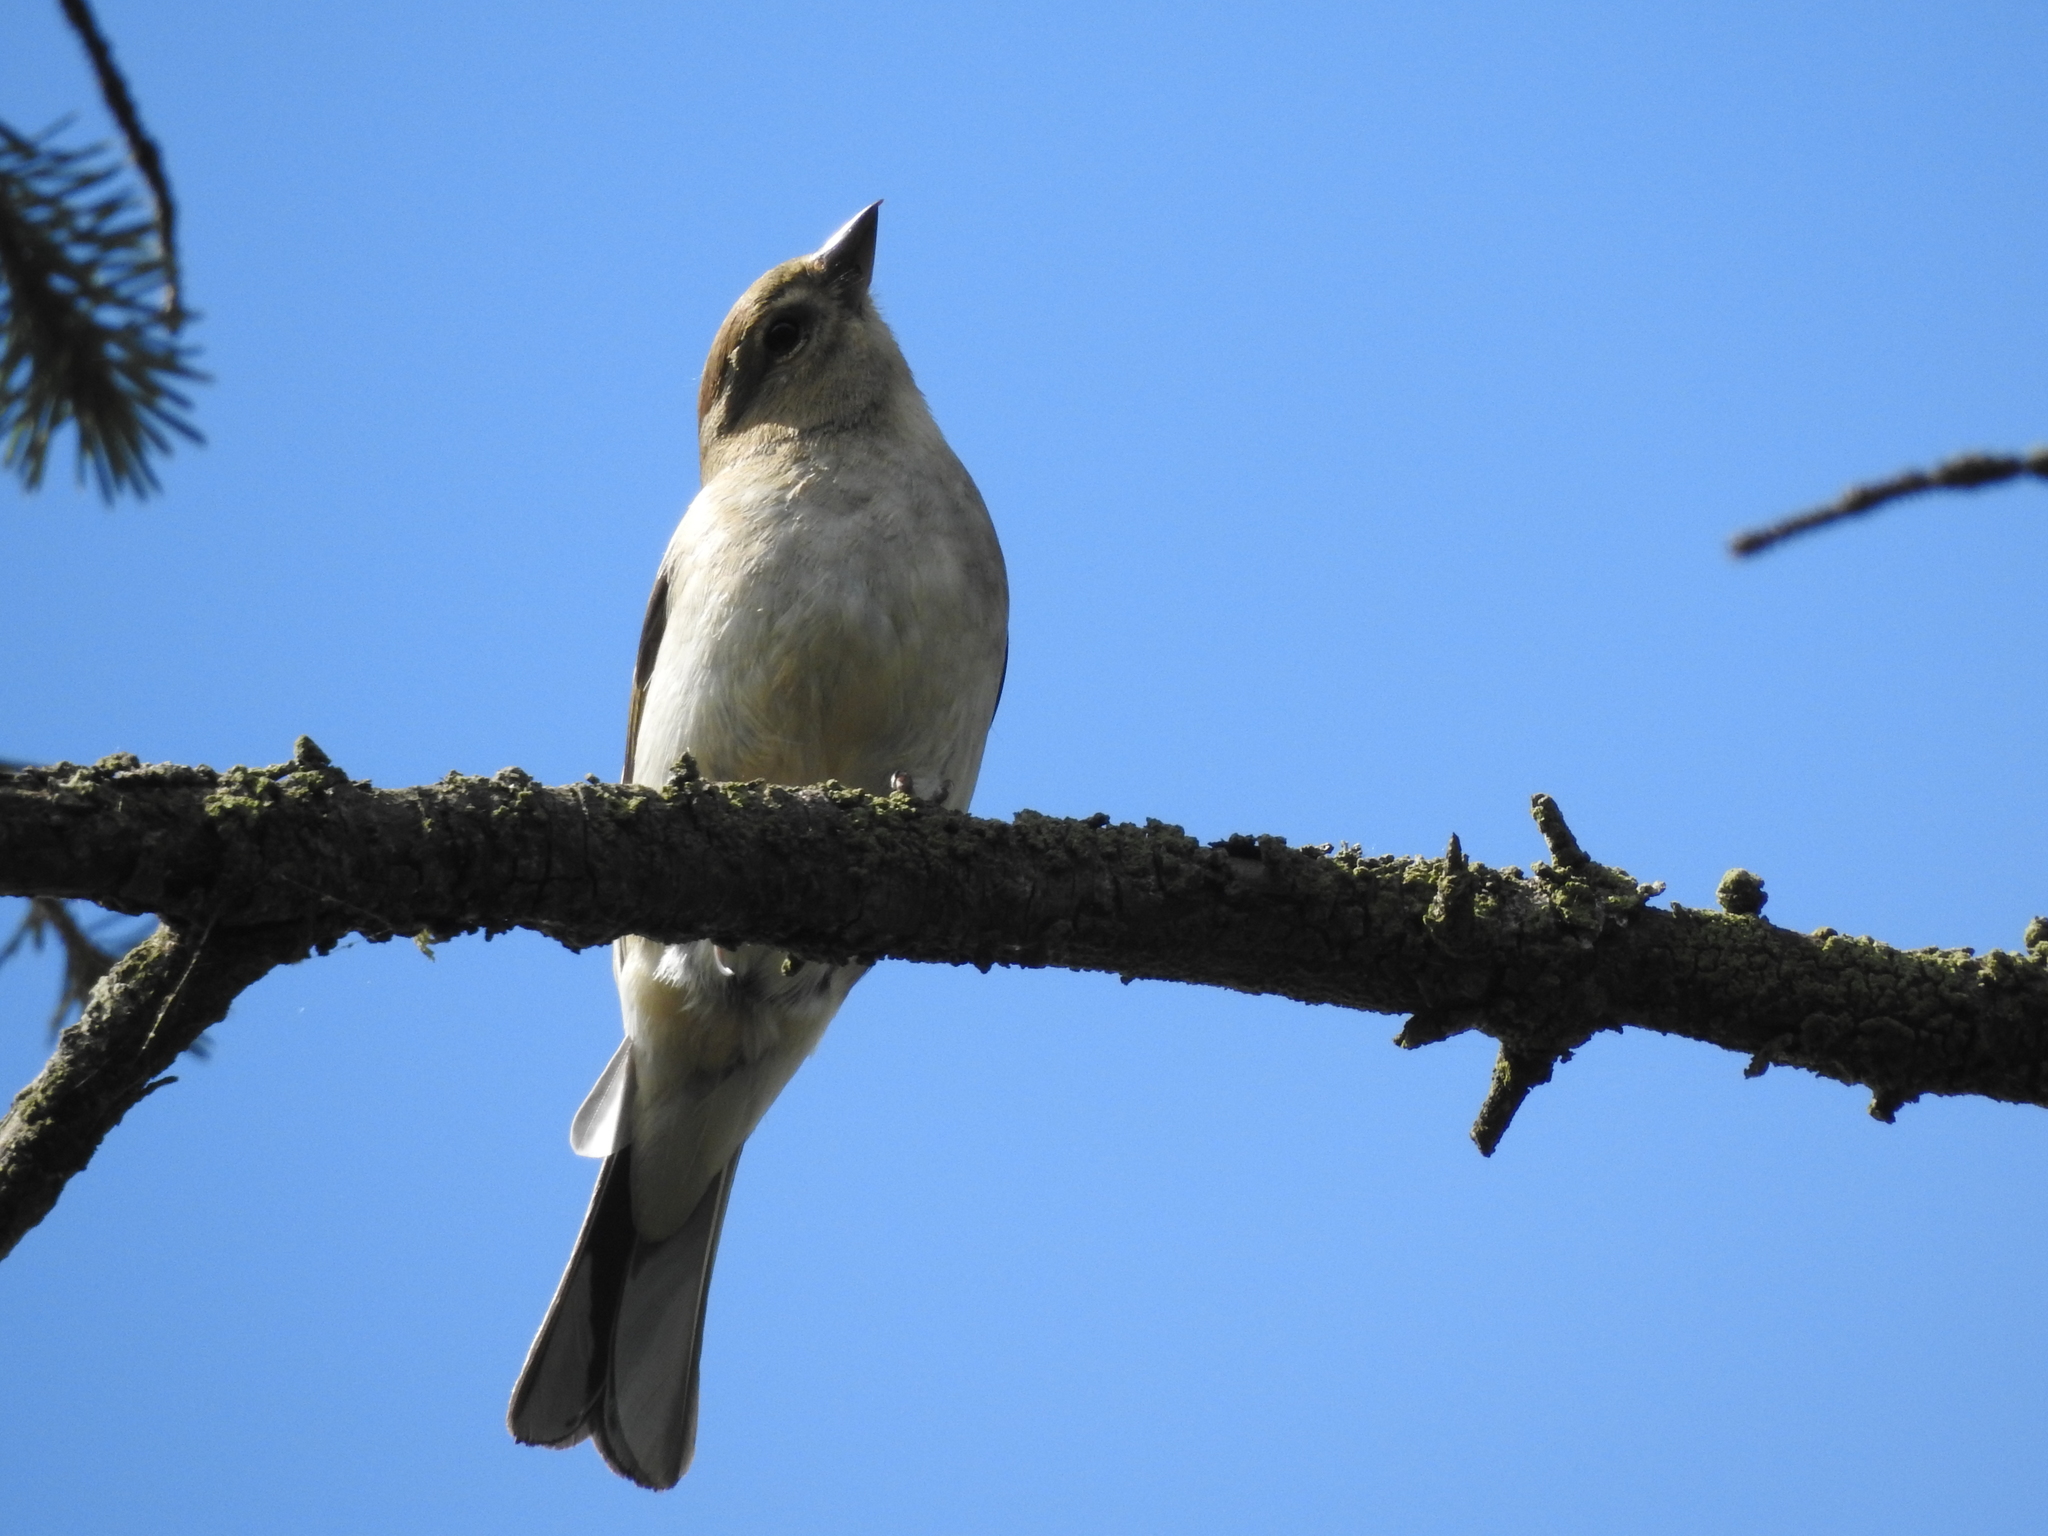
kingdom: Animalia
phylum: Chordata
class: Aves
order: Passeriformes
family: Fringillidae
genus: Fringilla
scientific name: Fringilla coelebs
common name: Common chaffinch
